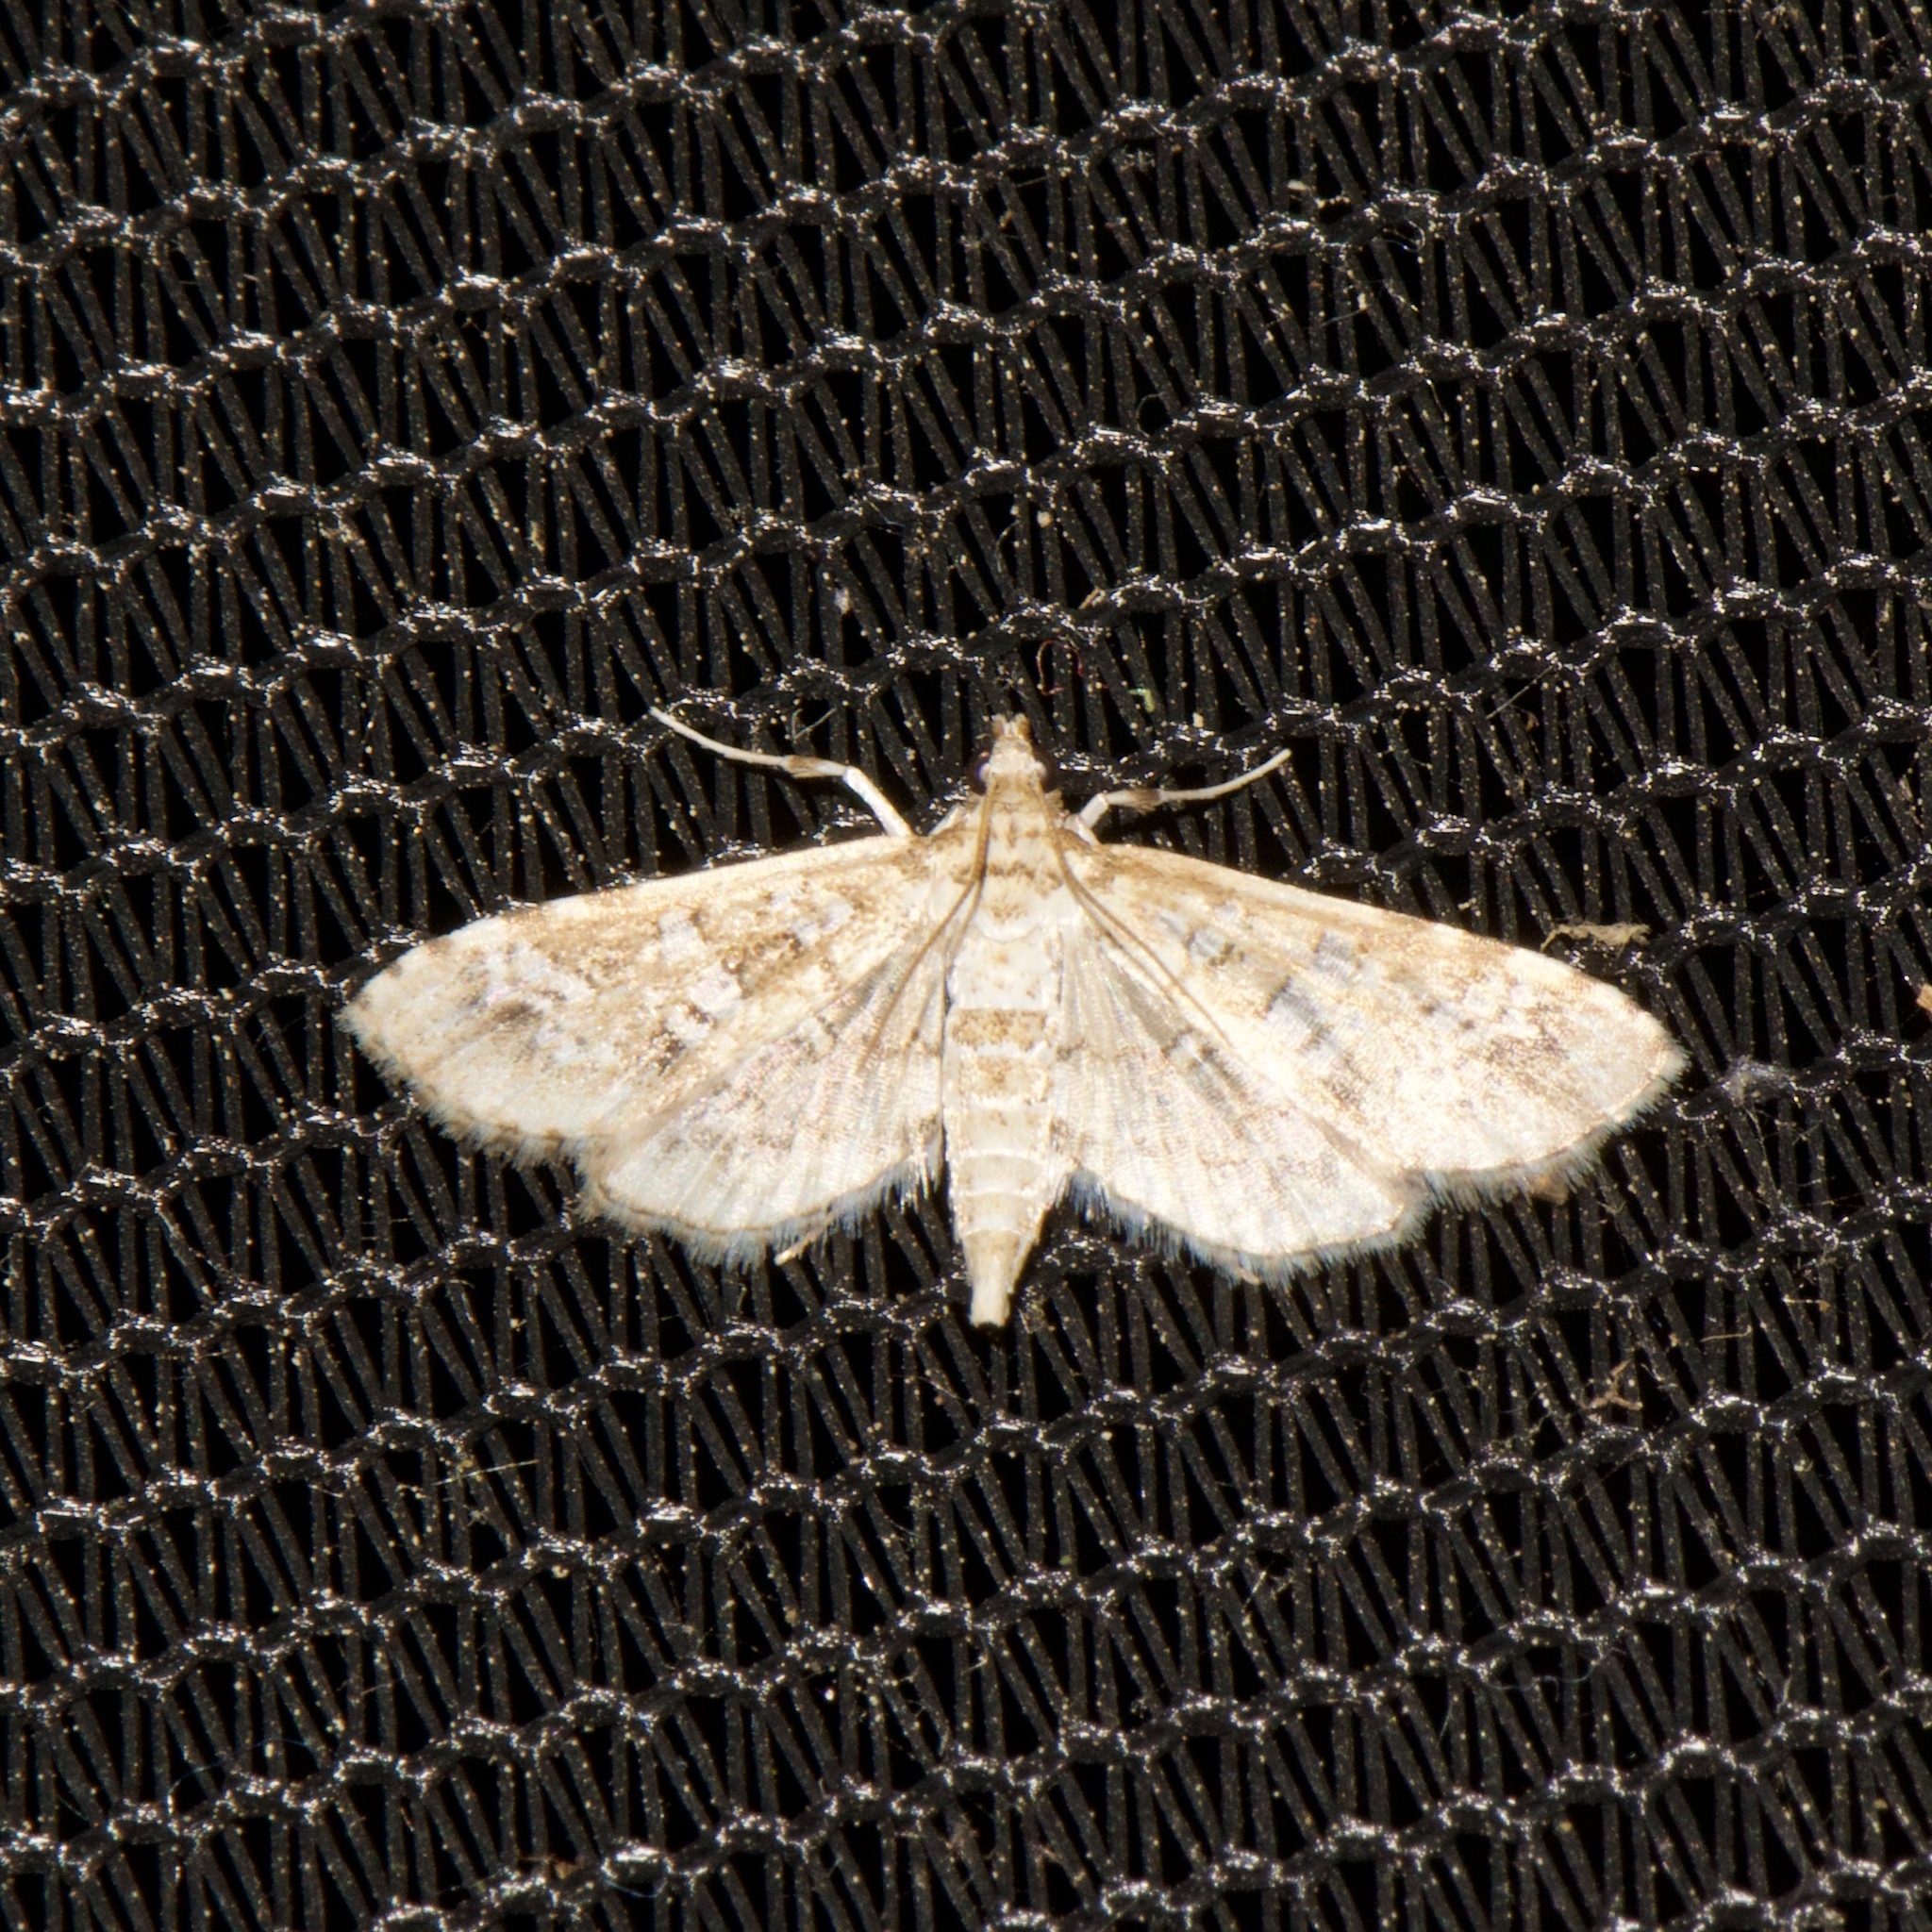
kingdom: Animalia
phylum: Arthropoda
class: Insecta
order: Lepidoptera
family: Crambidae
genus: Samea
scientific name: Samea multiplicalis
